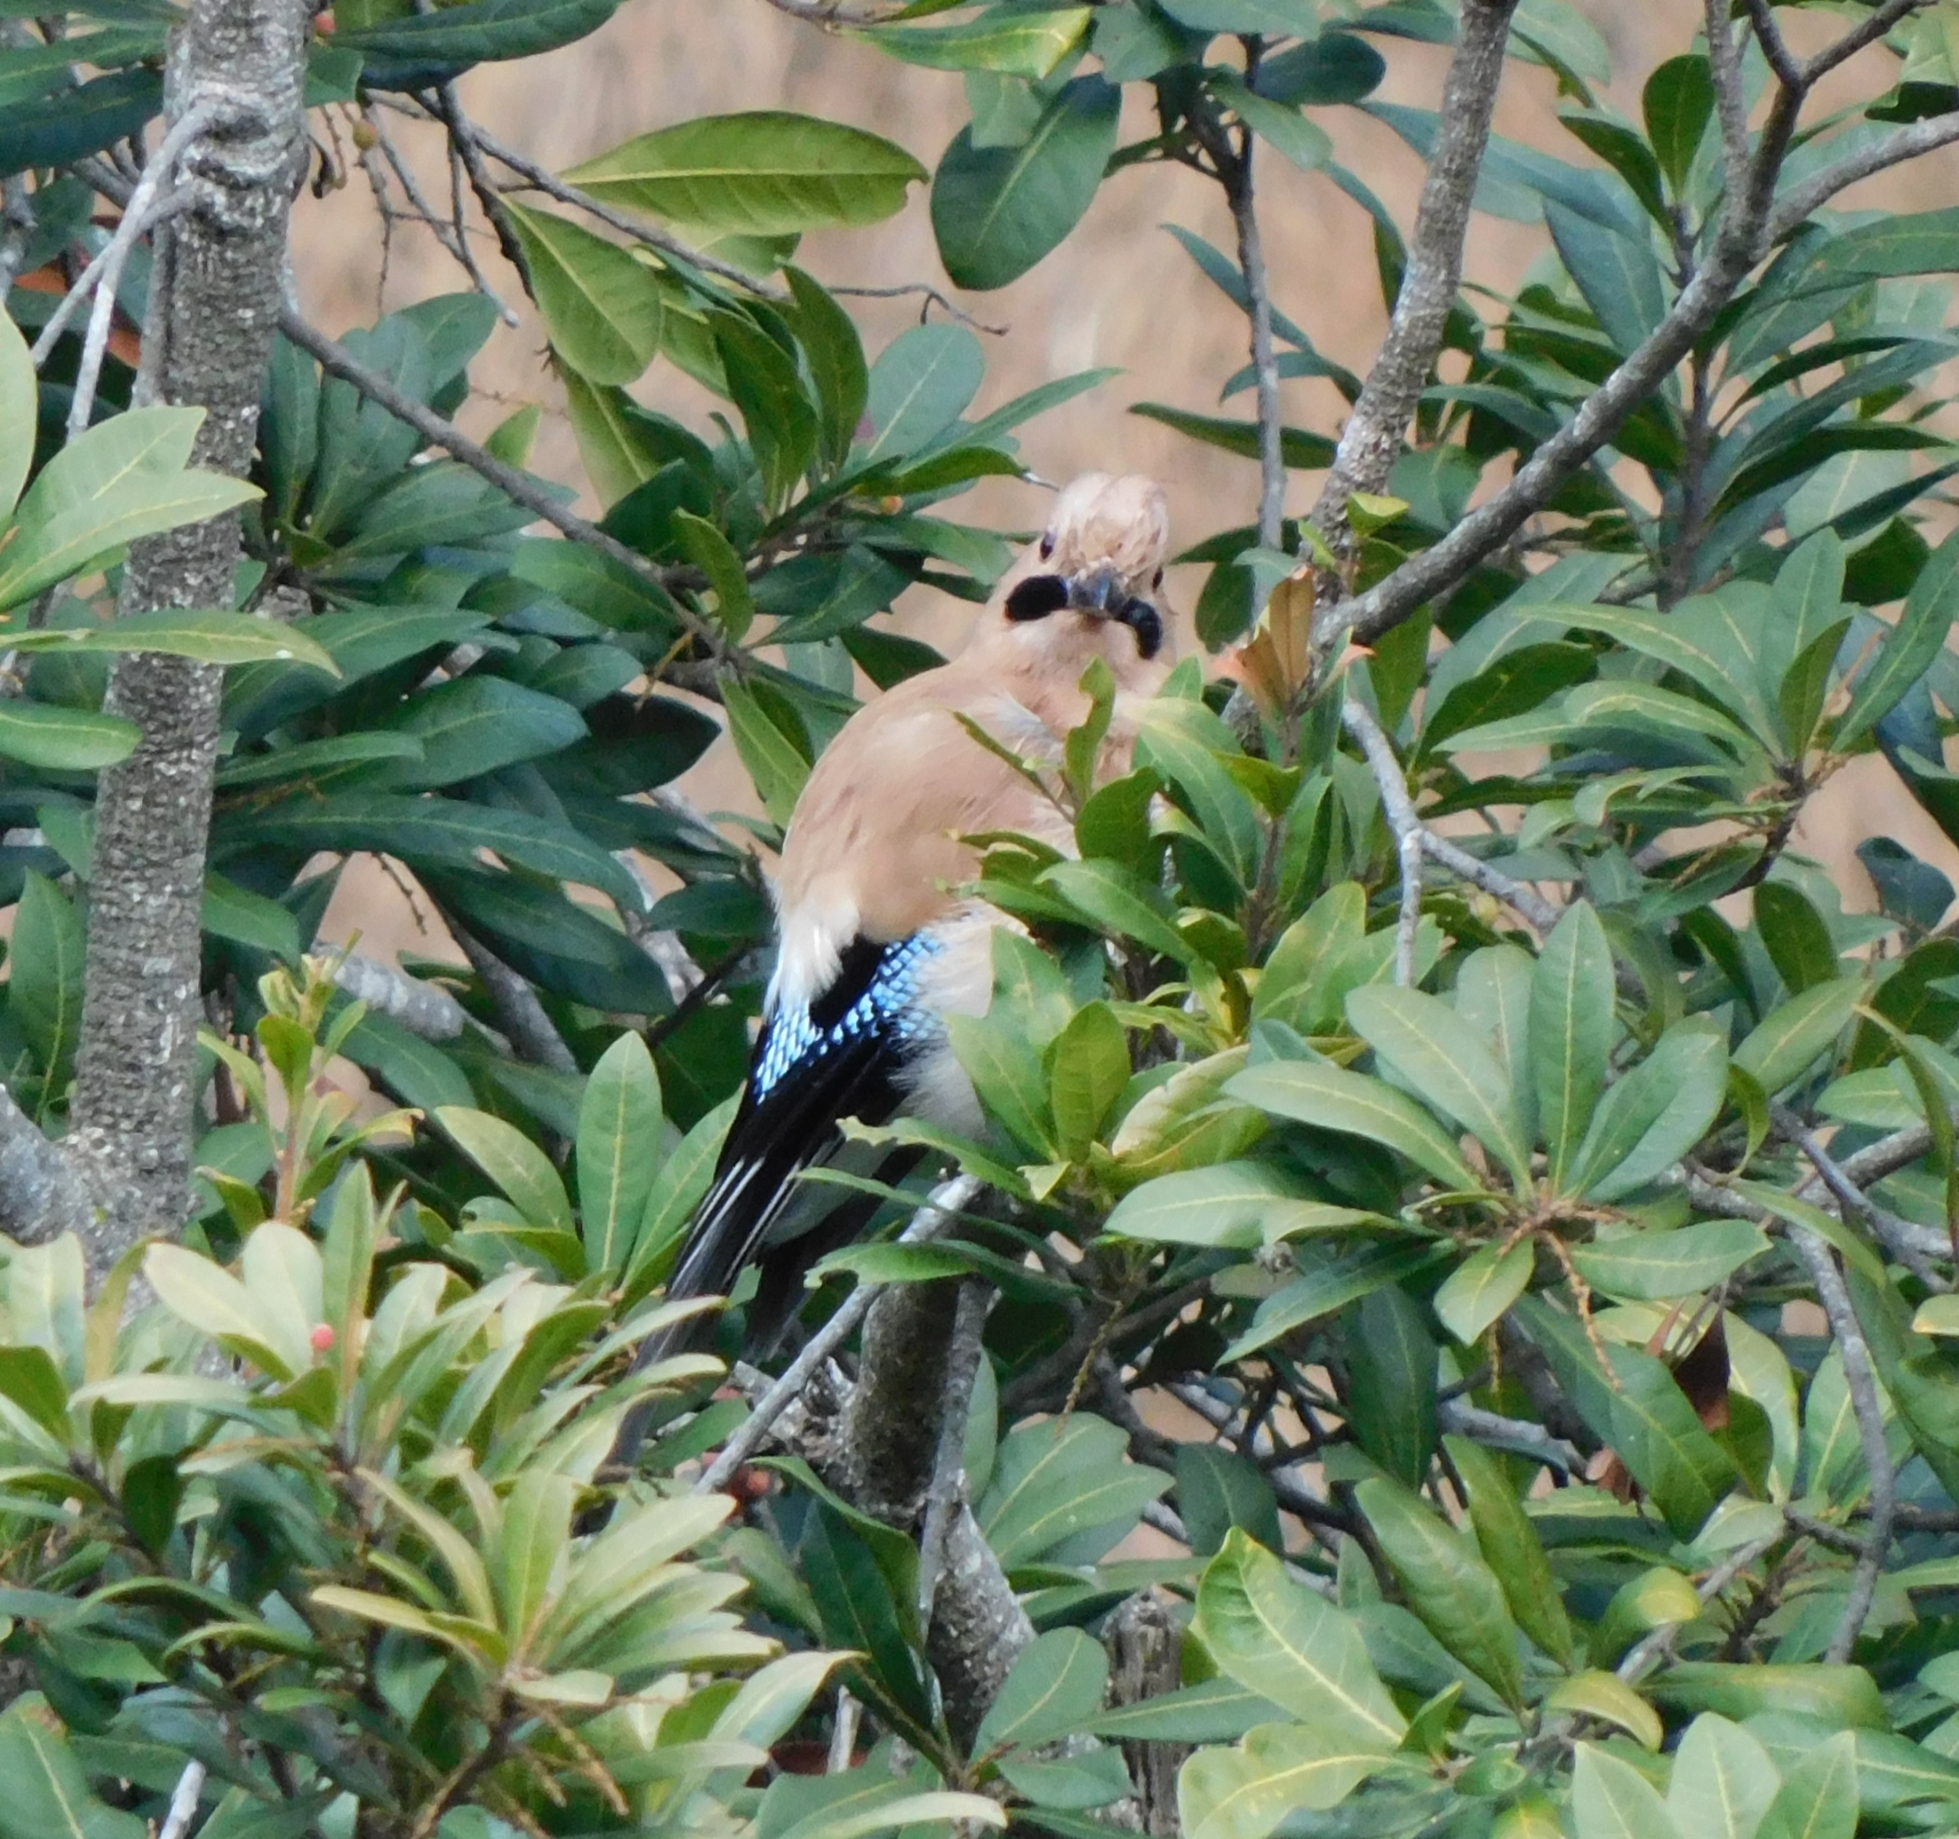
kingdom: Animalia
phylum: Chordata
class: Aves
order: Passeriformes
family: Corvidae
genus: Garrulus
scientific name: Garrulus glandarius
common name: Eurasian jay
